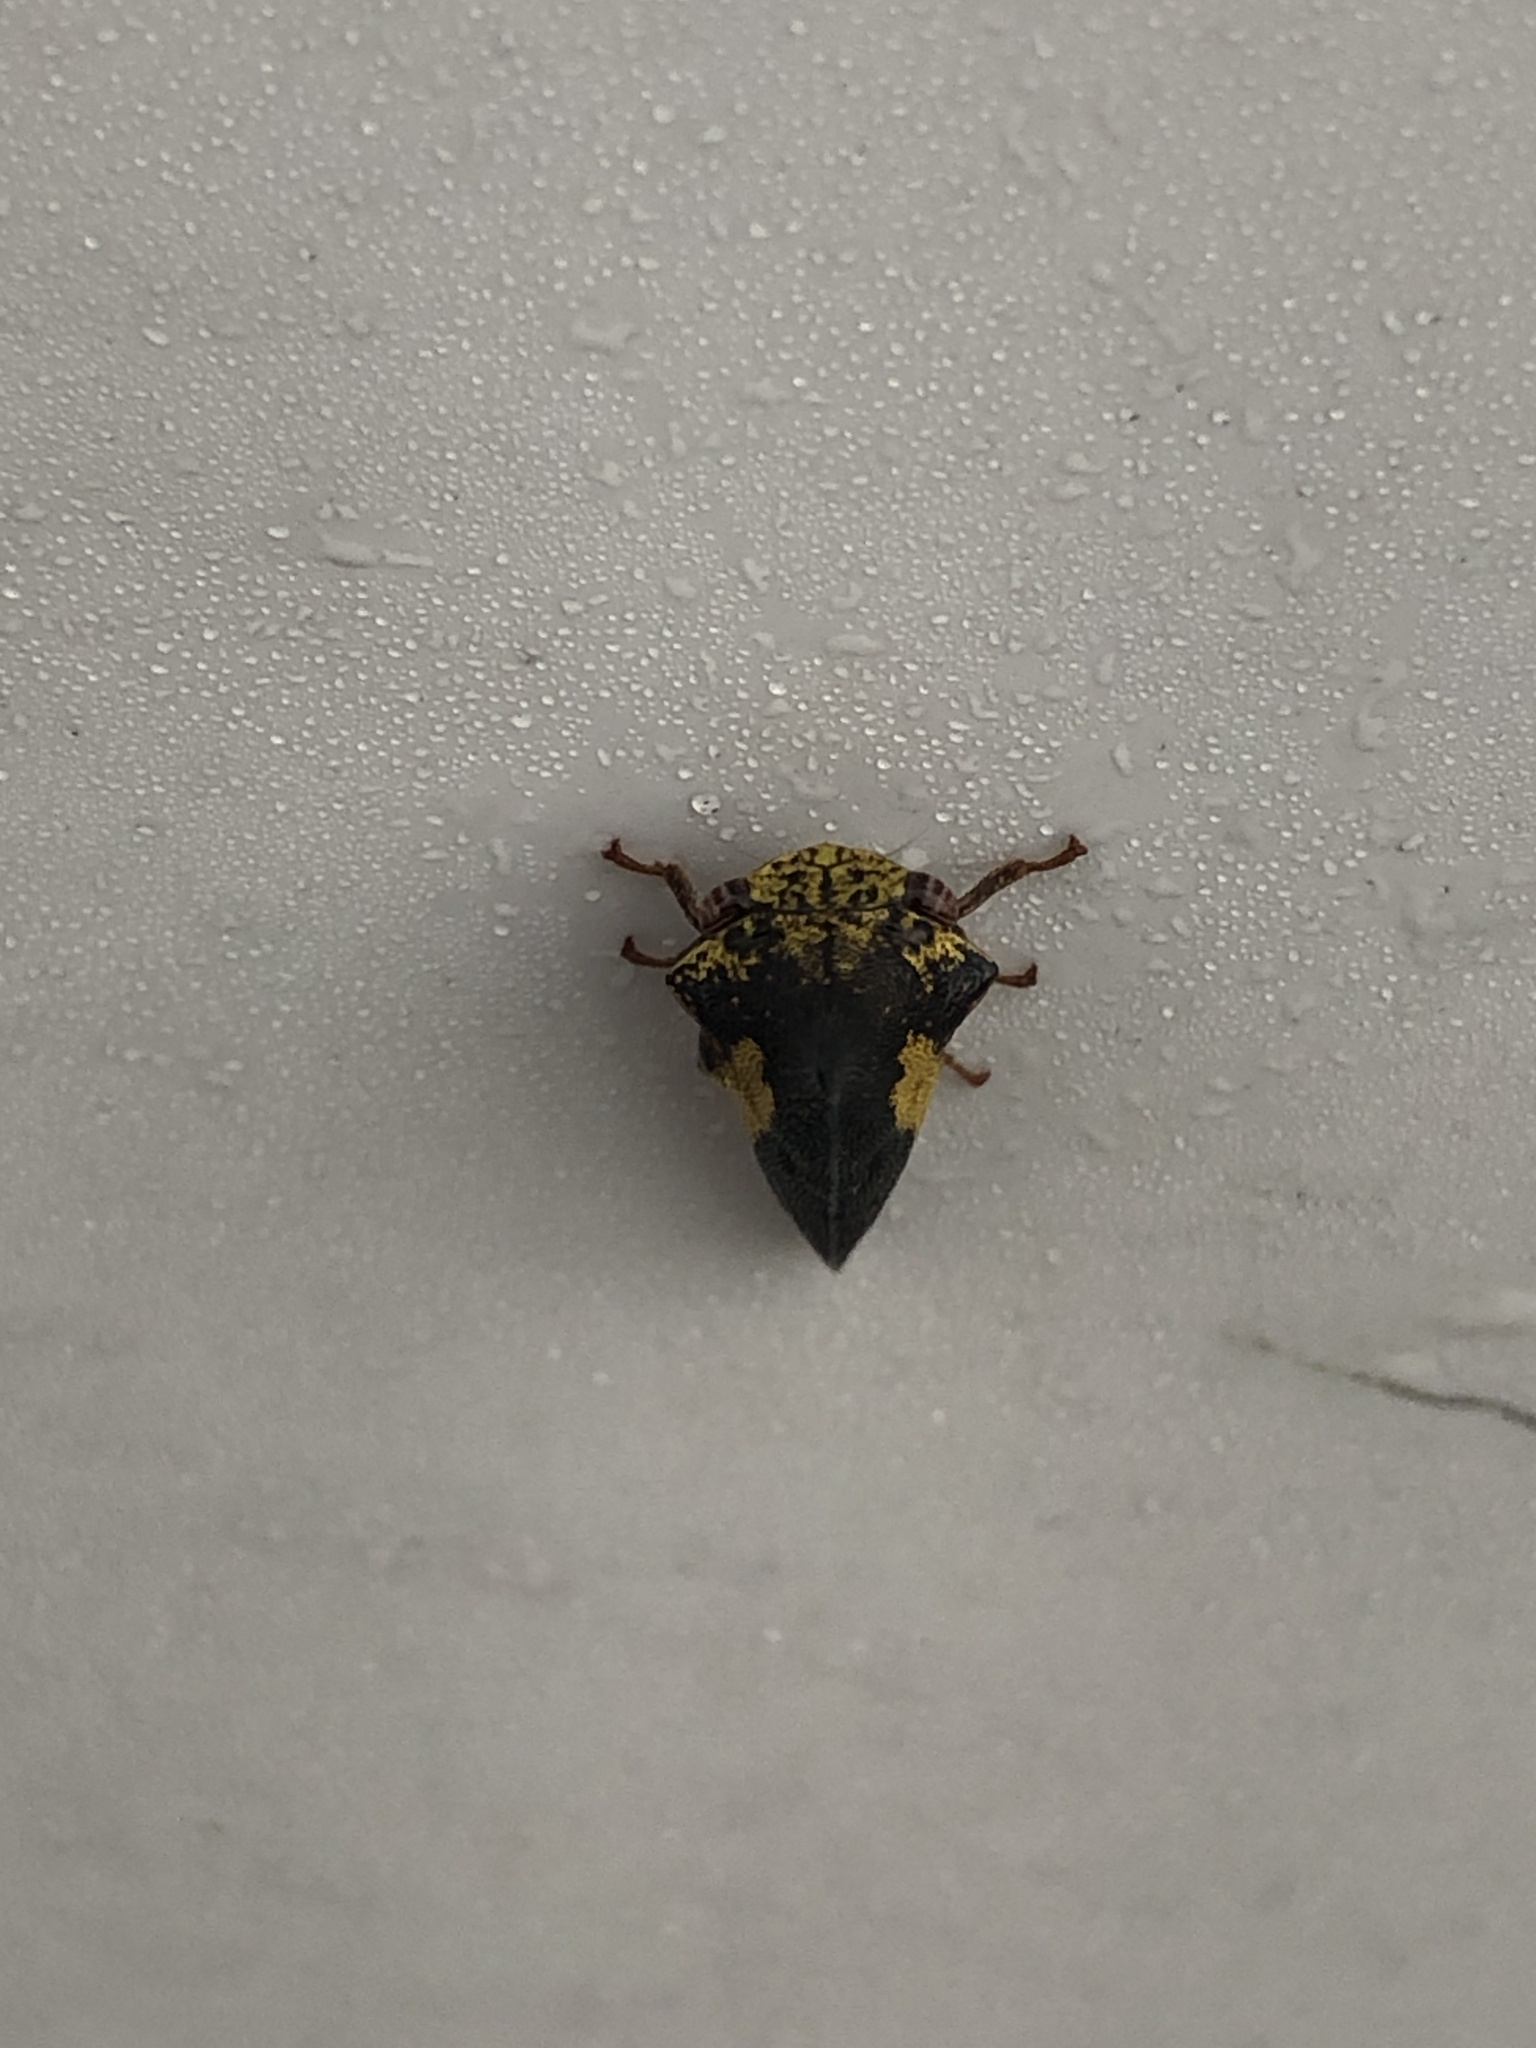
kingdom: Animalia
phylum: Arthropoda
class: Insecta
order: Hemiptera
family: Membracidae
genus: Thelia
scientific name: Thelia bimaculata
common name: Locust treehopper
